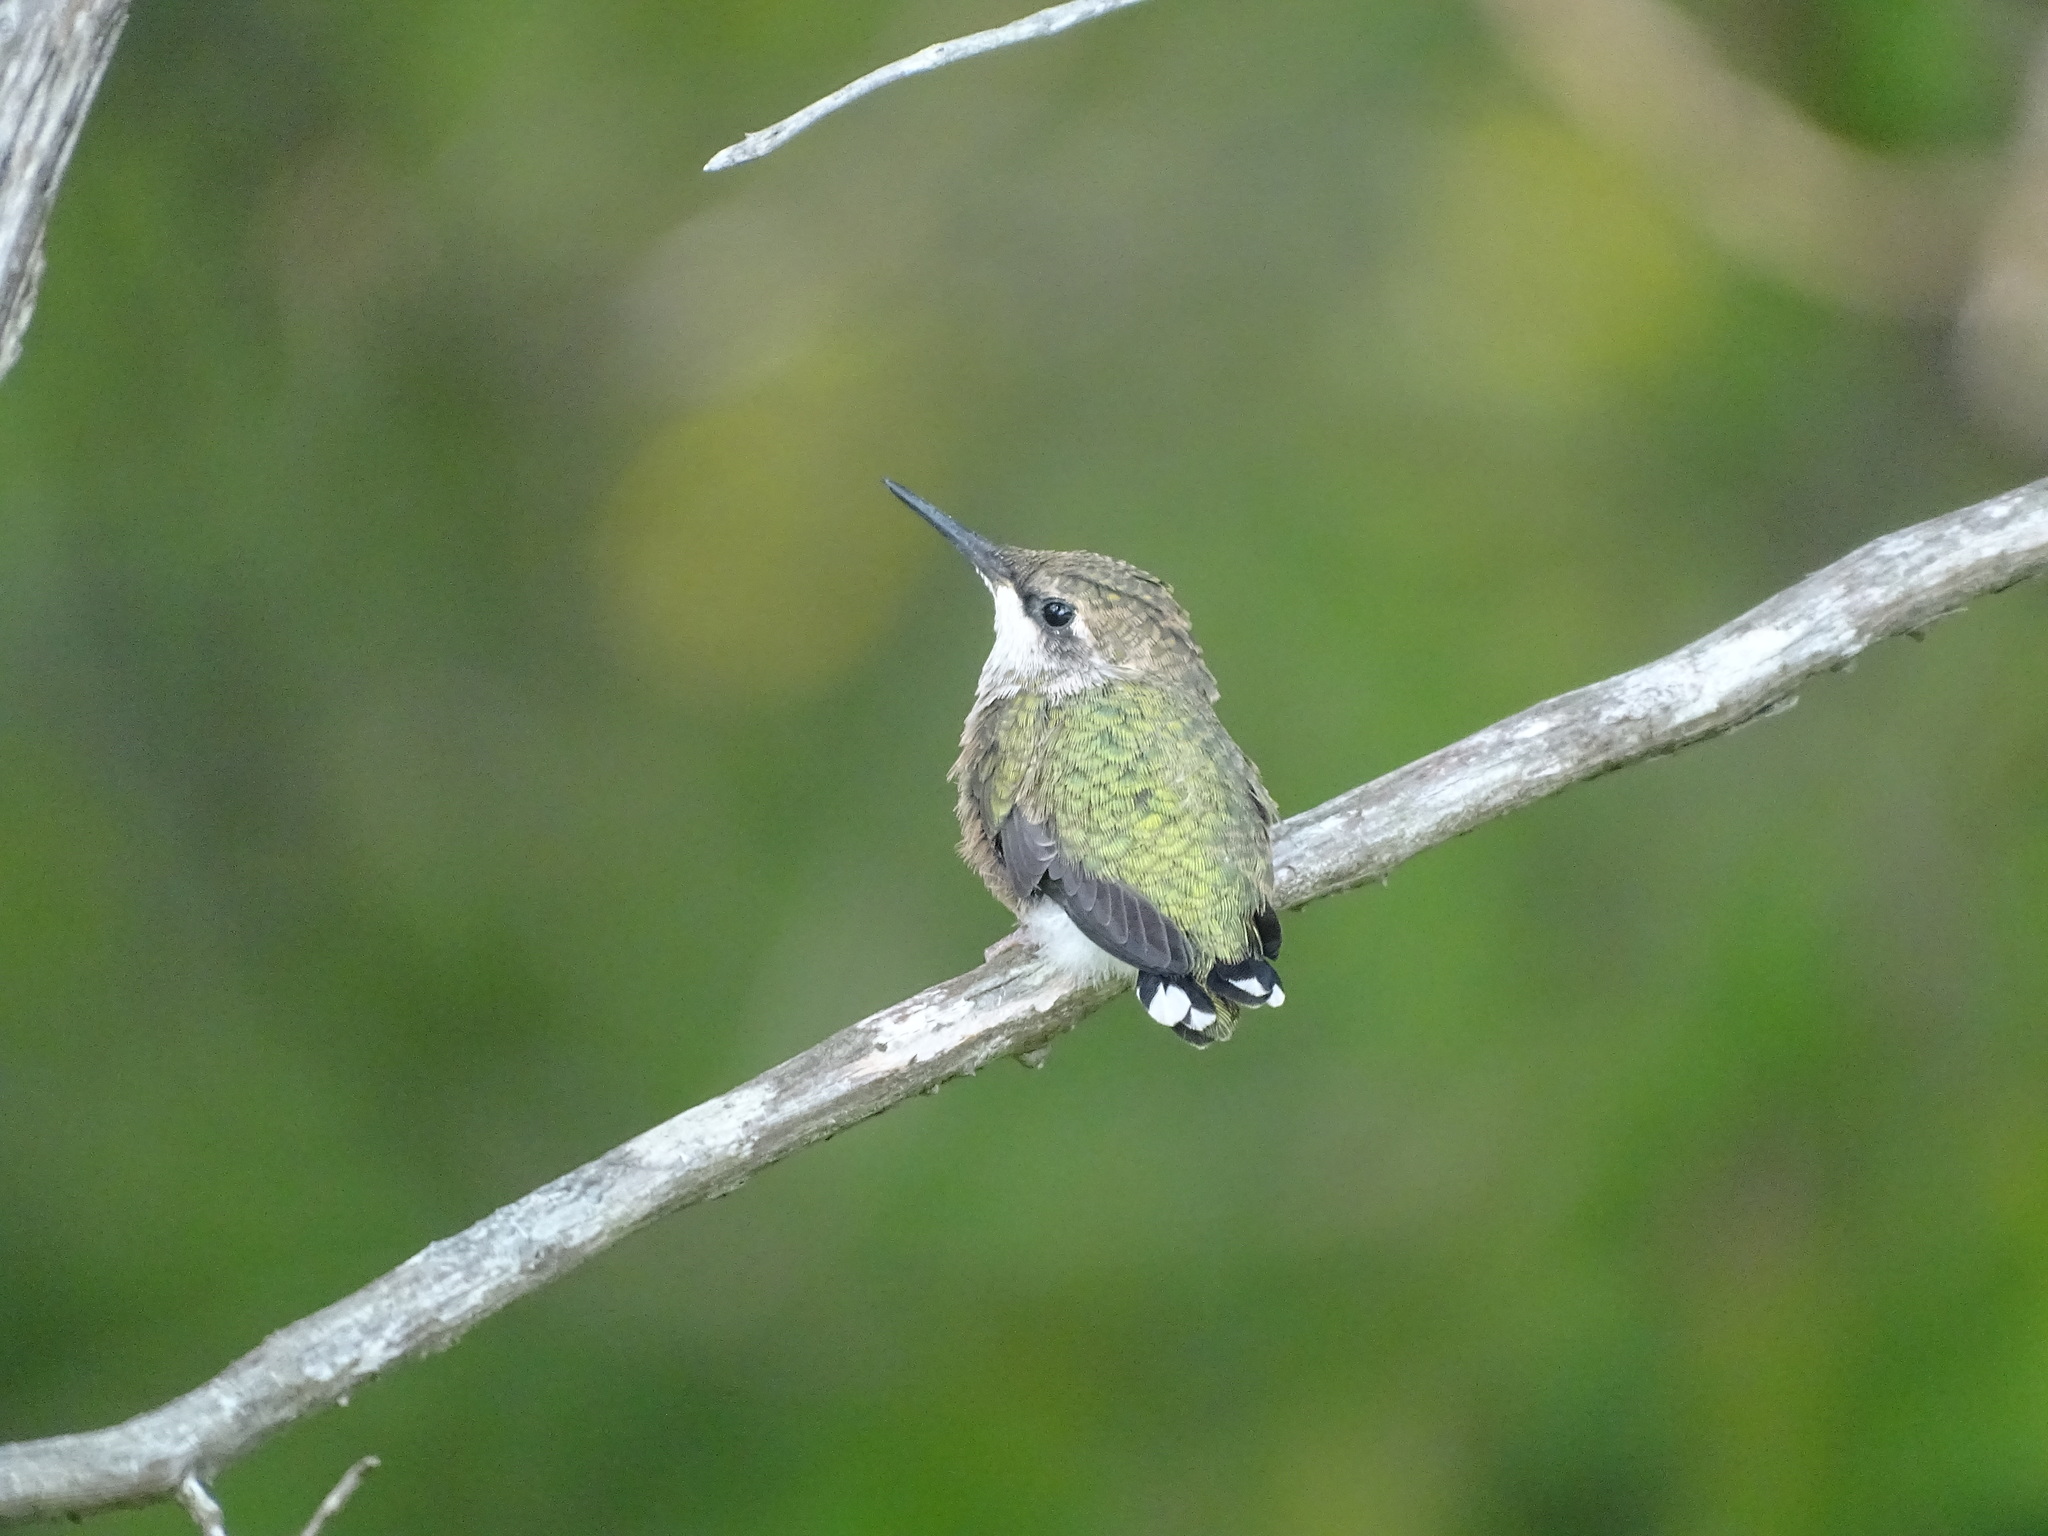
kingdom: Animalia
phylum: Chordata
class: Aves
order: Apodiformes
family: Trochilidae
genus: Archilochus
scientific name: Archilochus colubris
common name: Ruby-throated hummingbird
